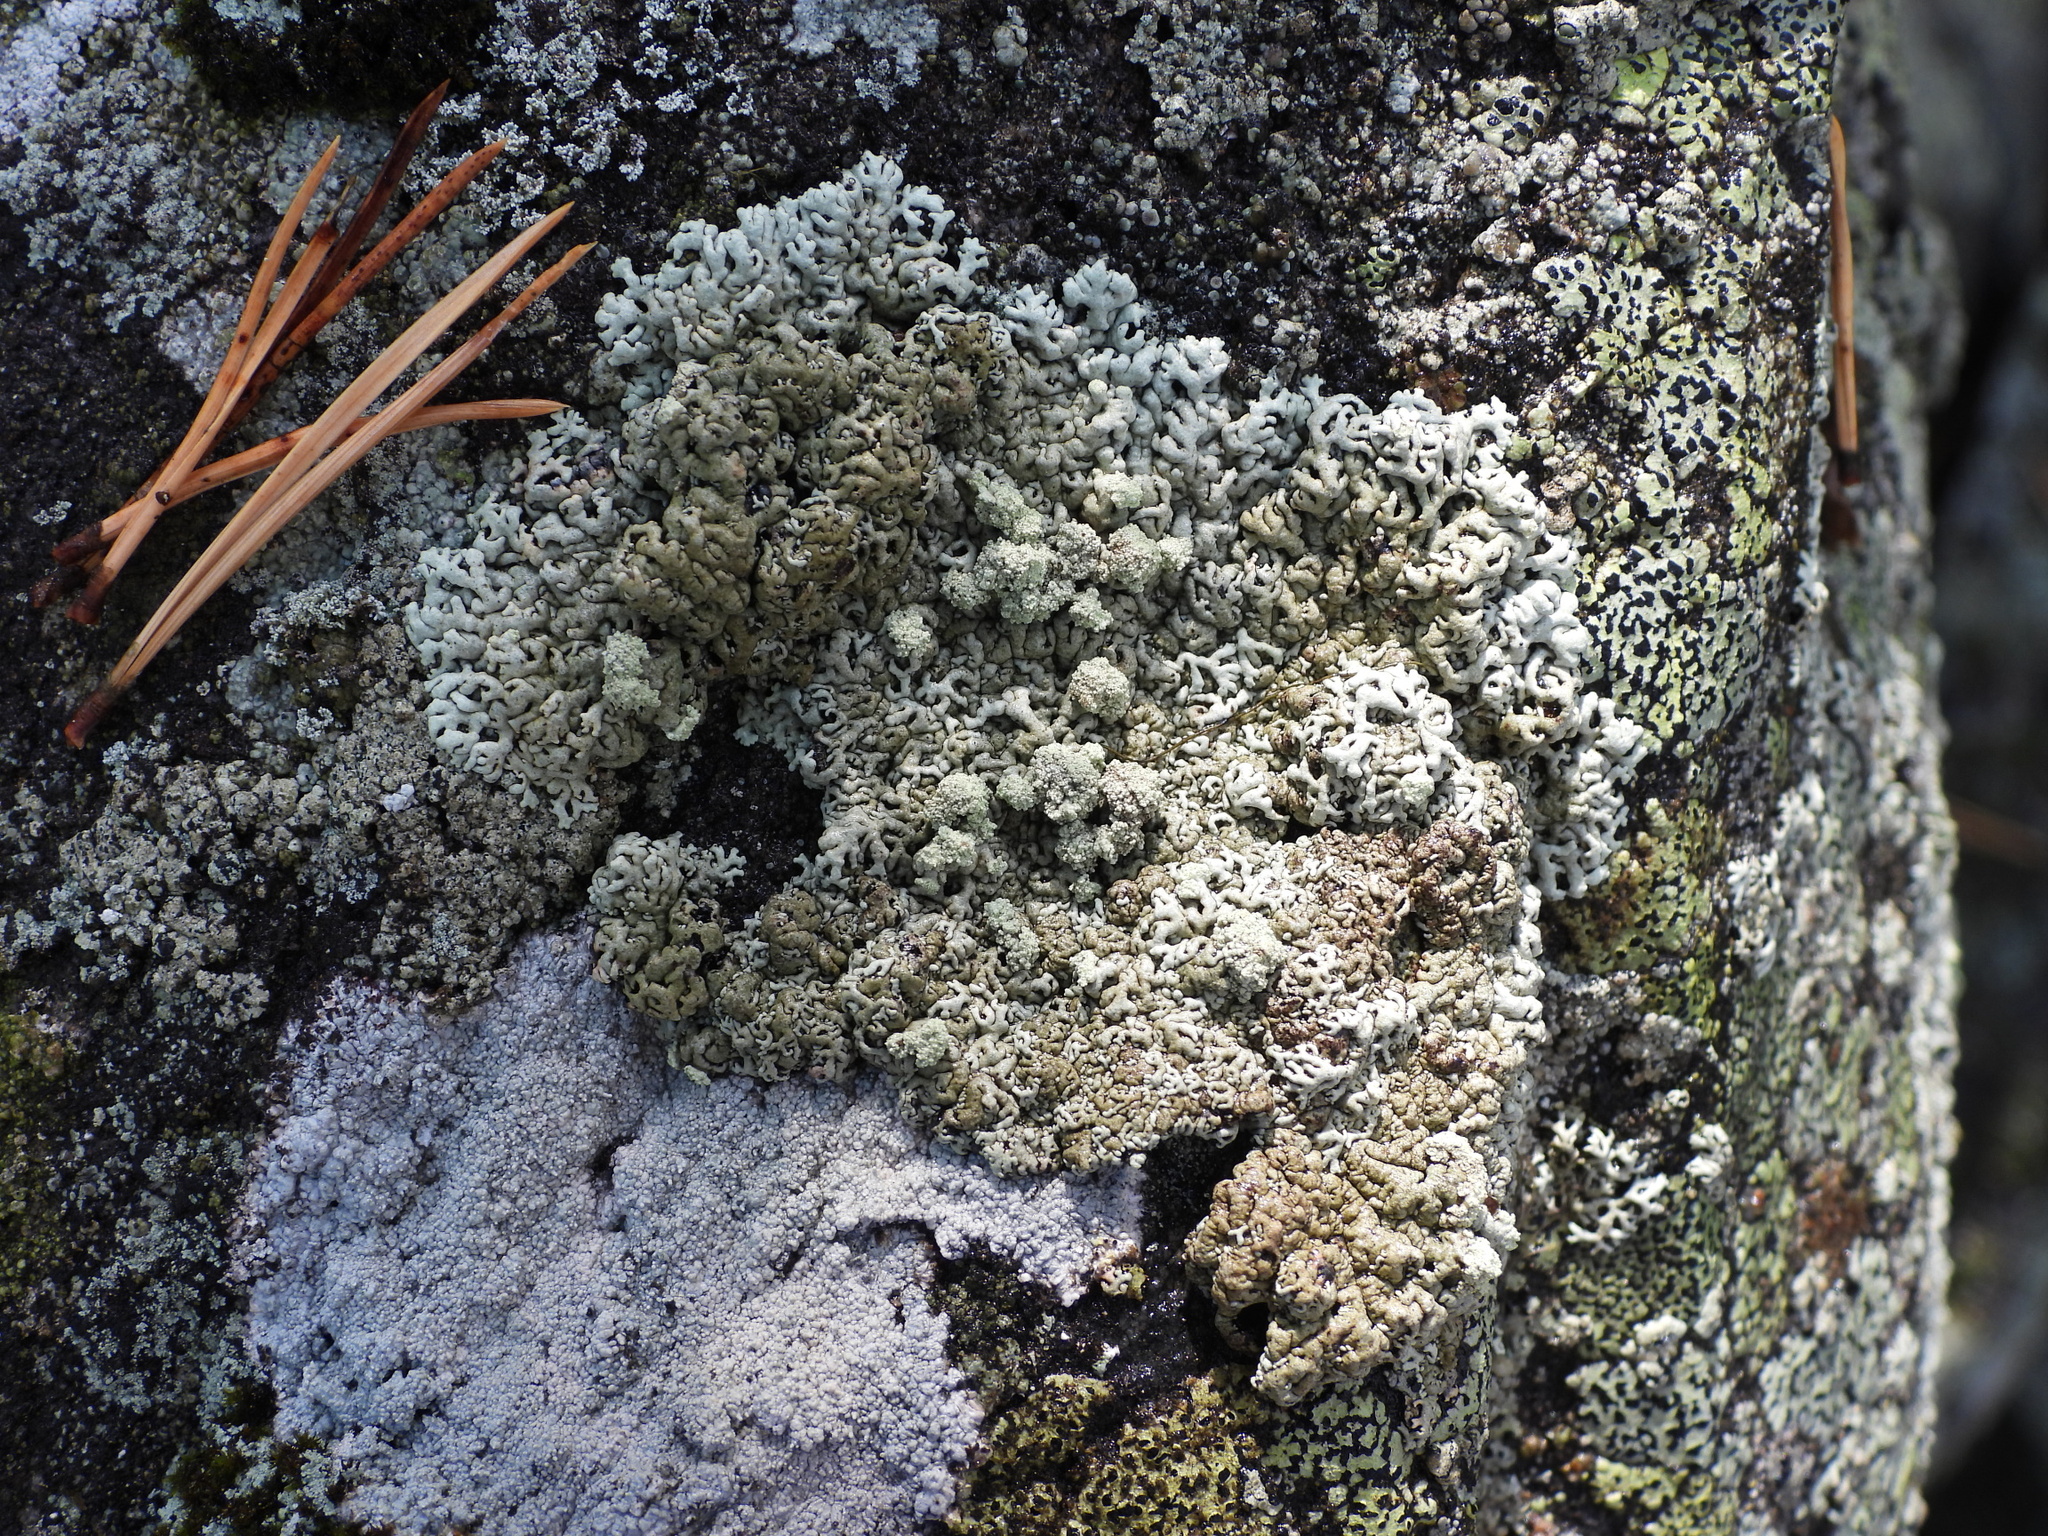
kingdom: Fungi
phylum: Ascomycota
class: Lecanoromycetes
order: Lecanorales
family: Parmeliaceae
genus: Arctoparmelia
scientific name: Arctoparmelia incurva
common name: Bent ring lichen
